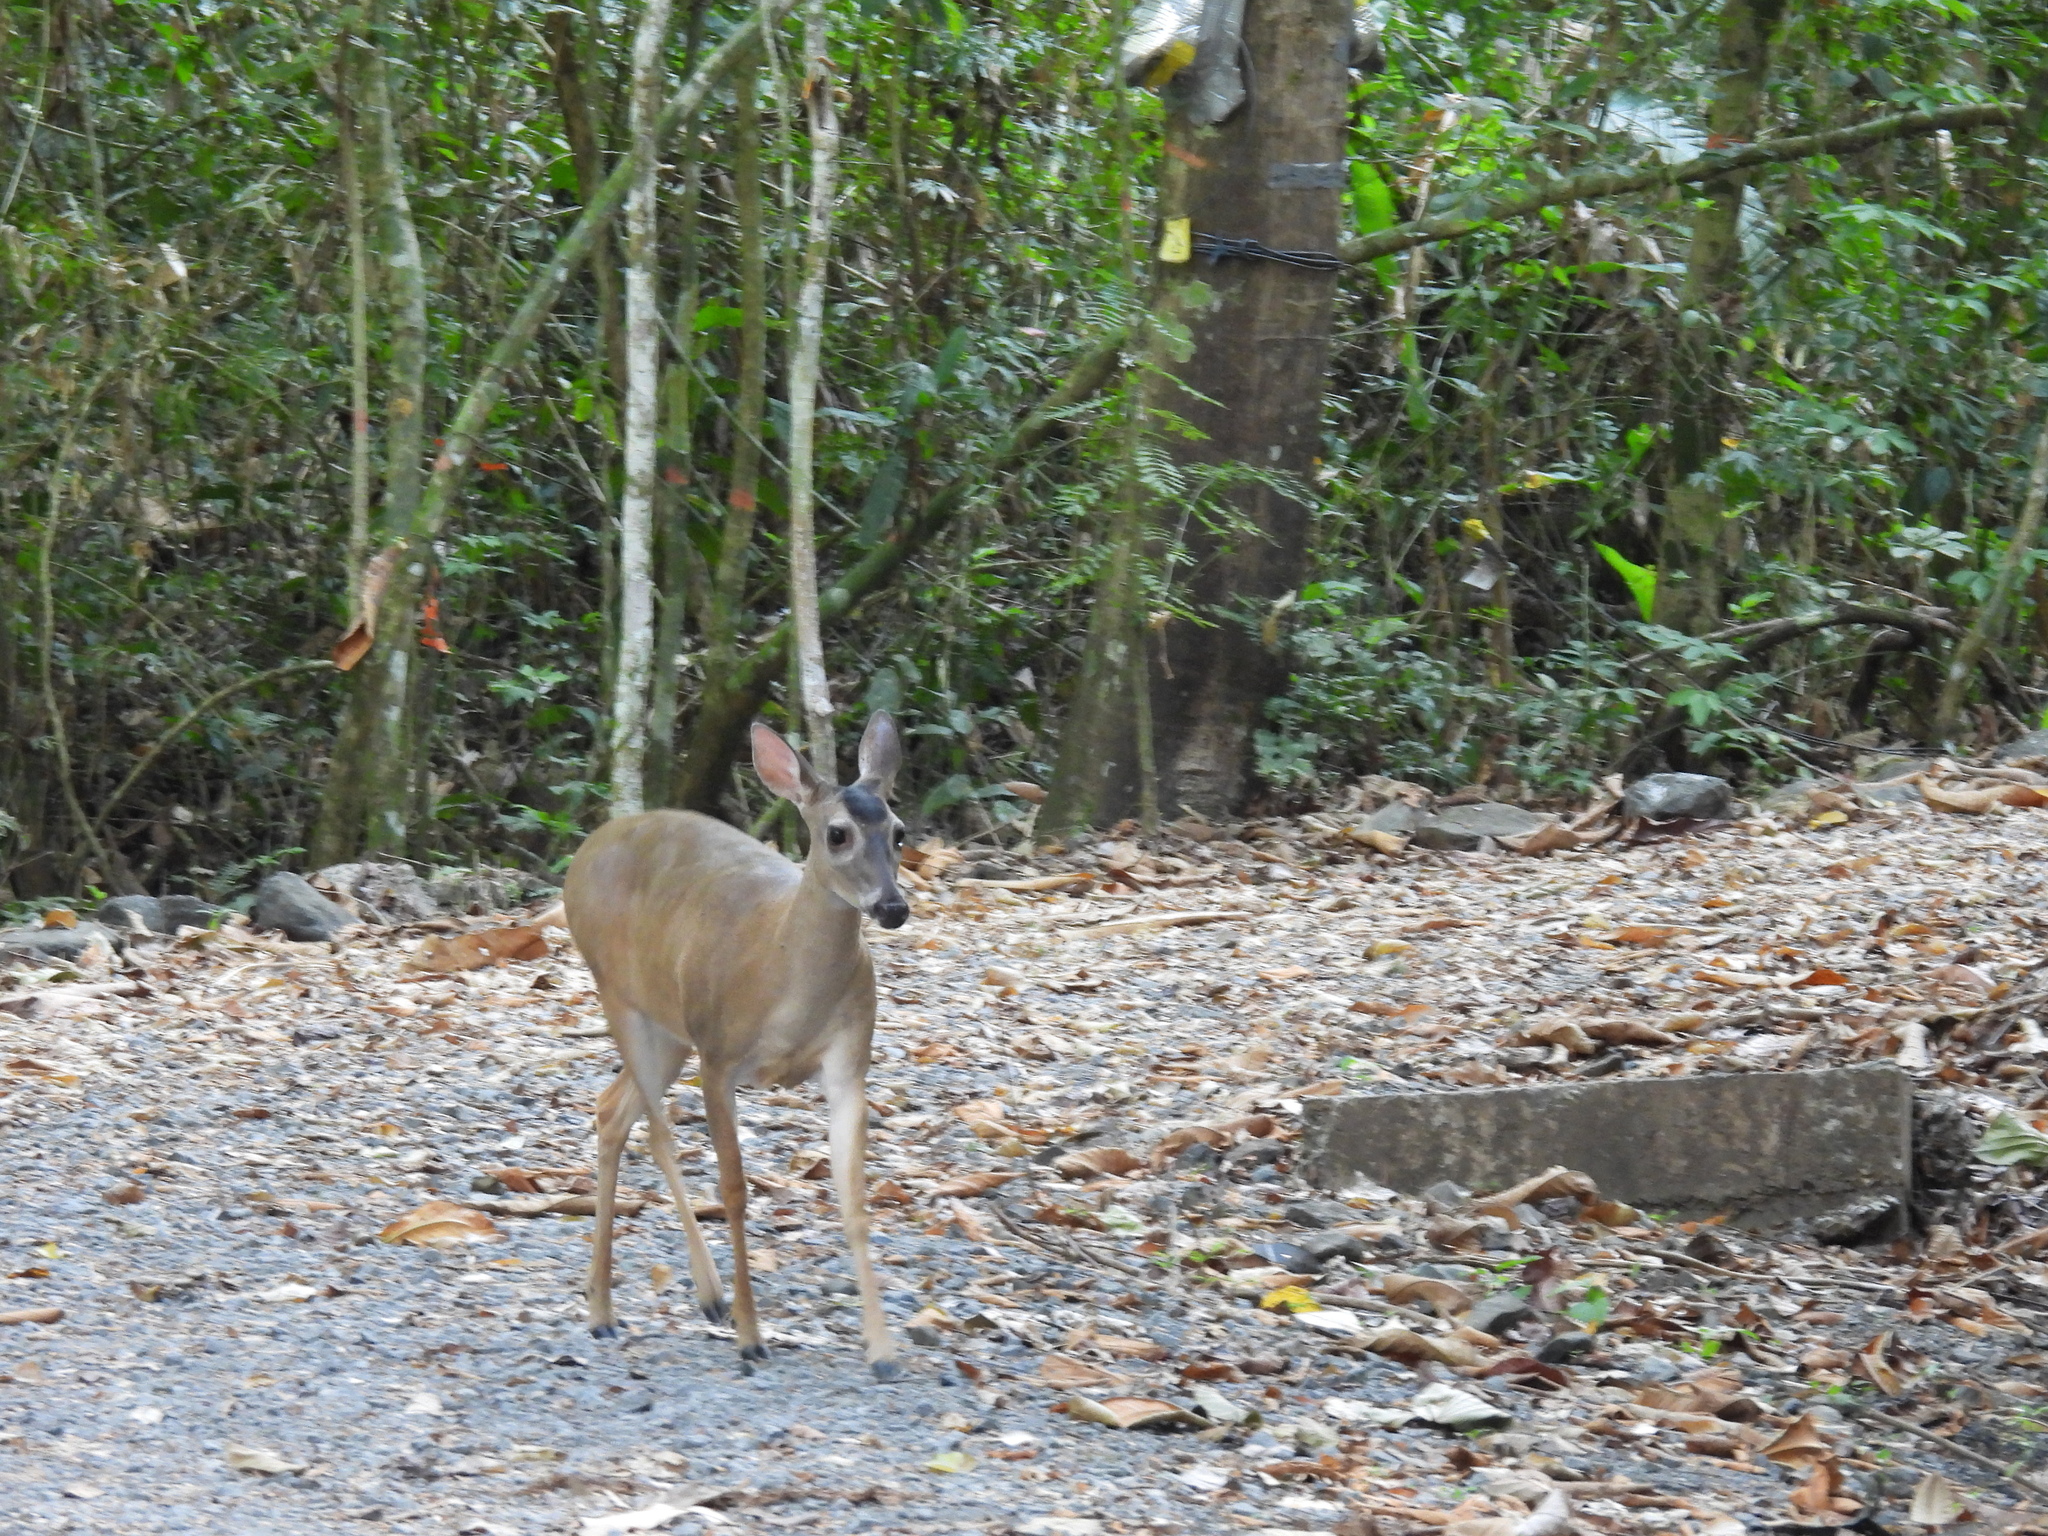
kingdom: Animalia
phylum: Chordata
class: Mammalia
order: Artiodactyla
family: Cervidae
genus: Odocoileus
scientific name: Odocoileus virginianus
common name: White-tailed deer
